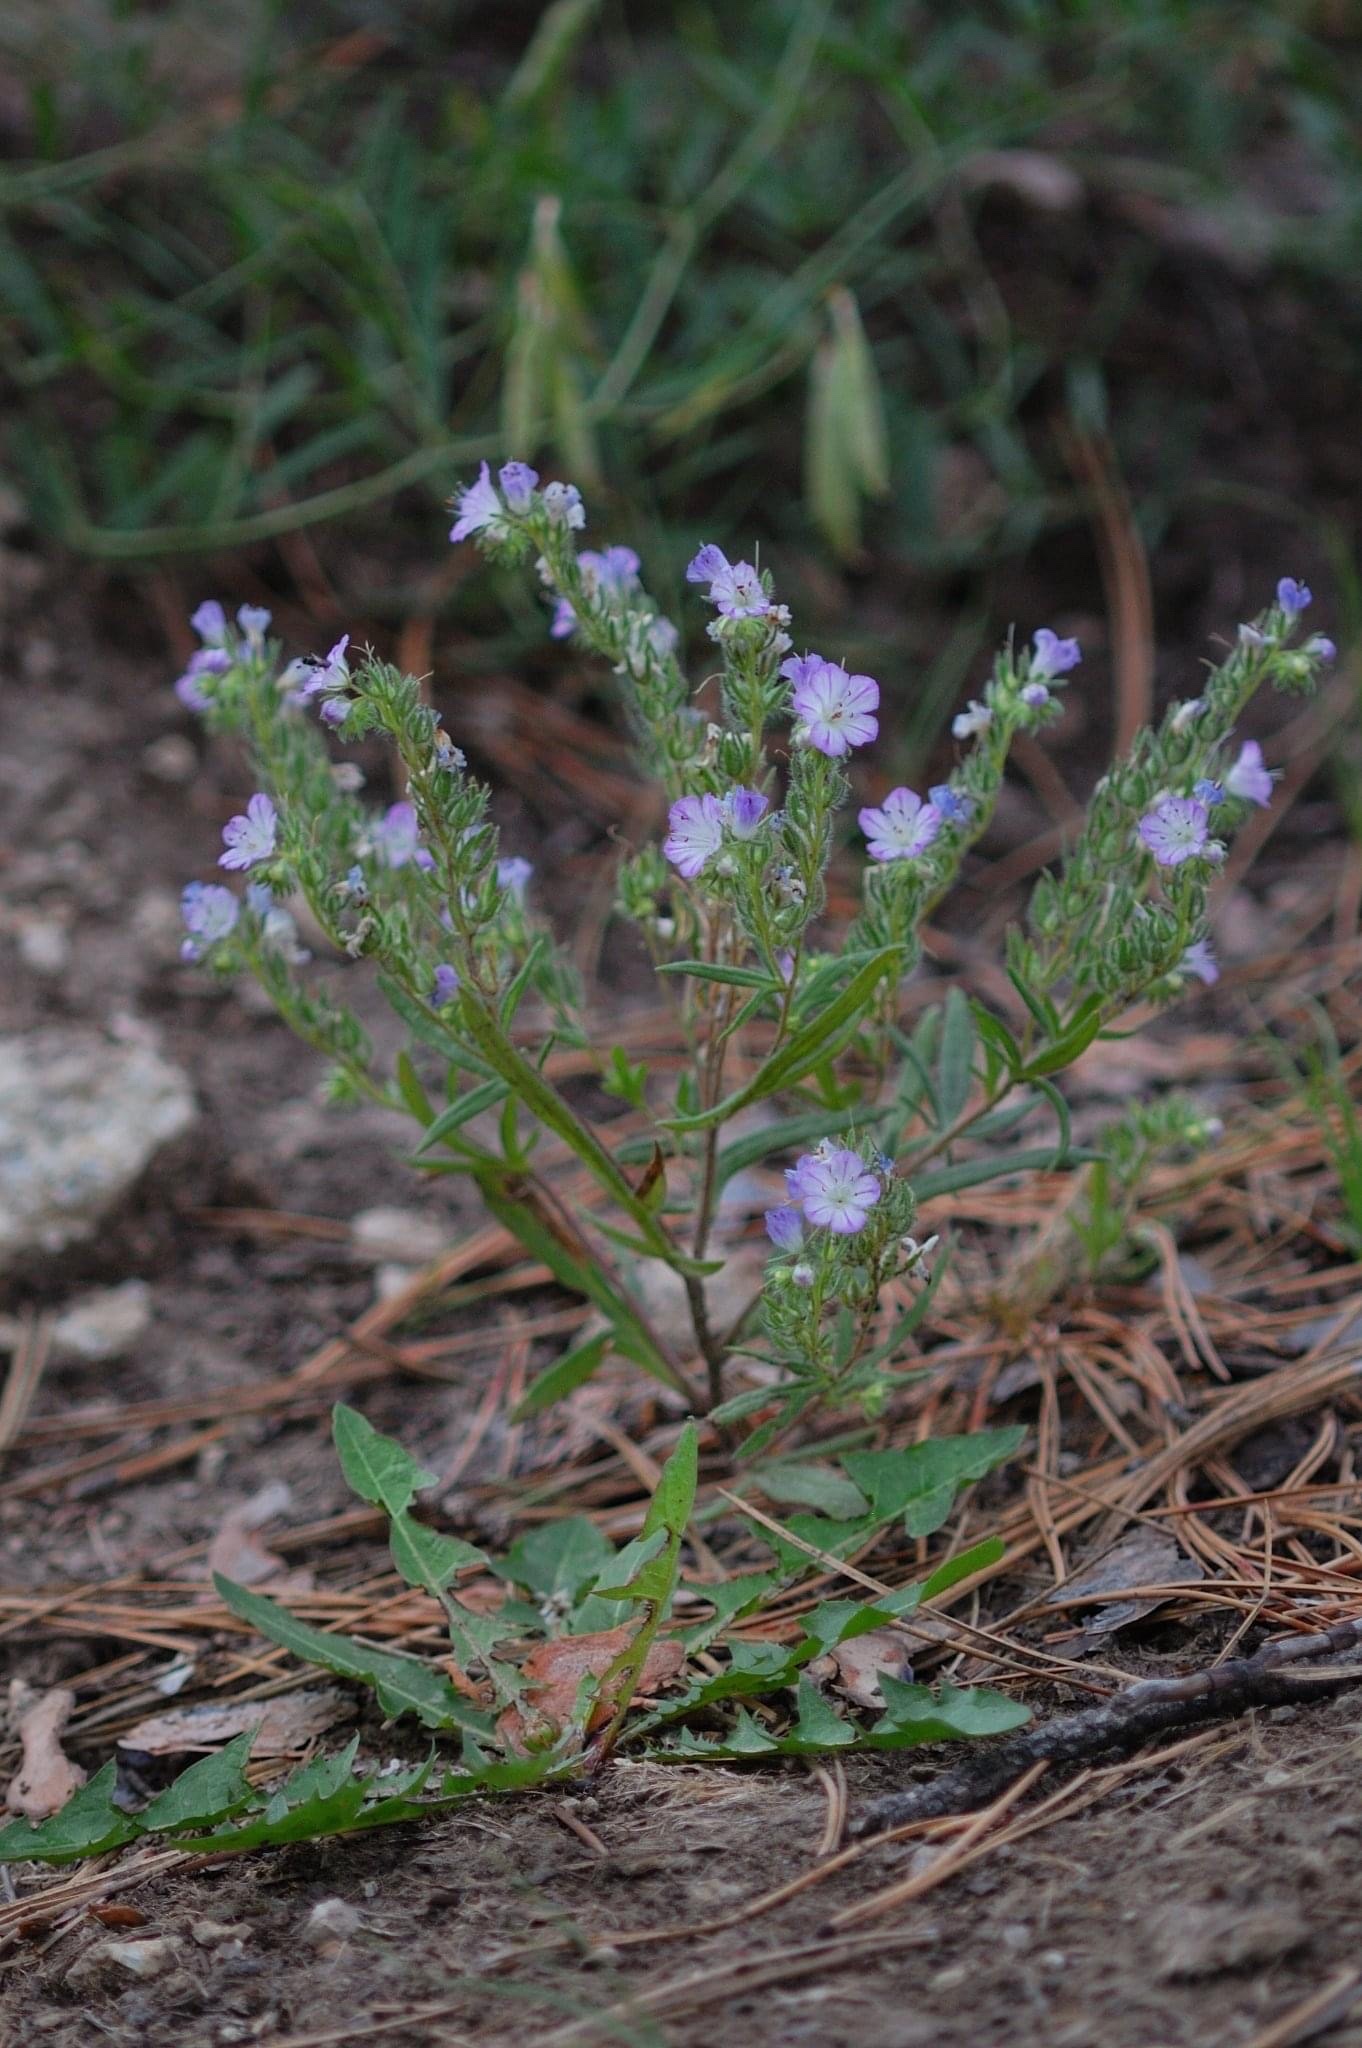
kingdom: Plantae
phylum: Tracheophyta
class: Magnoliopsida
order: Boraginales
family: Hydrophyllaceae
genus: Phacelia
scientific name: Phacelia linearis
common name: Linear-leaved phacelia
